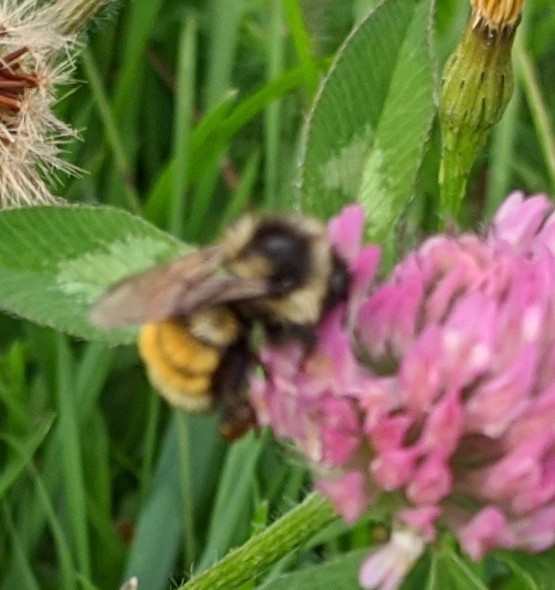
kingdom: Animalia
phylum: Arthropoda
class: Insecta
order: Hymenoptera
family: Apidae
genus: Bombus
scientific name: Bombus ternarius
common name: Tri-colored bumble bee
